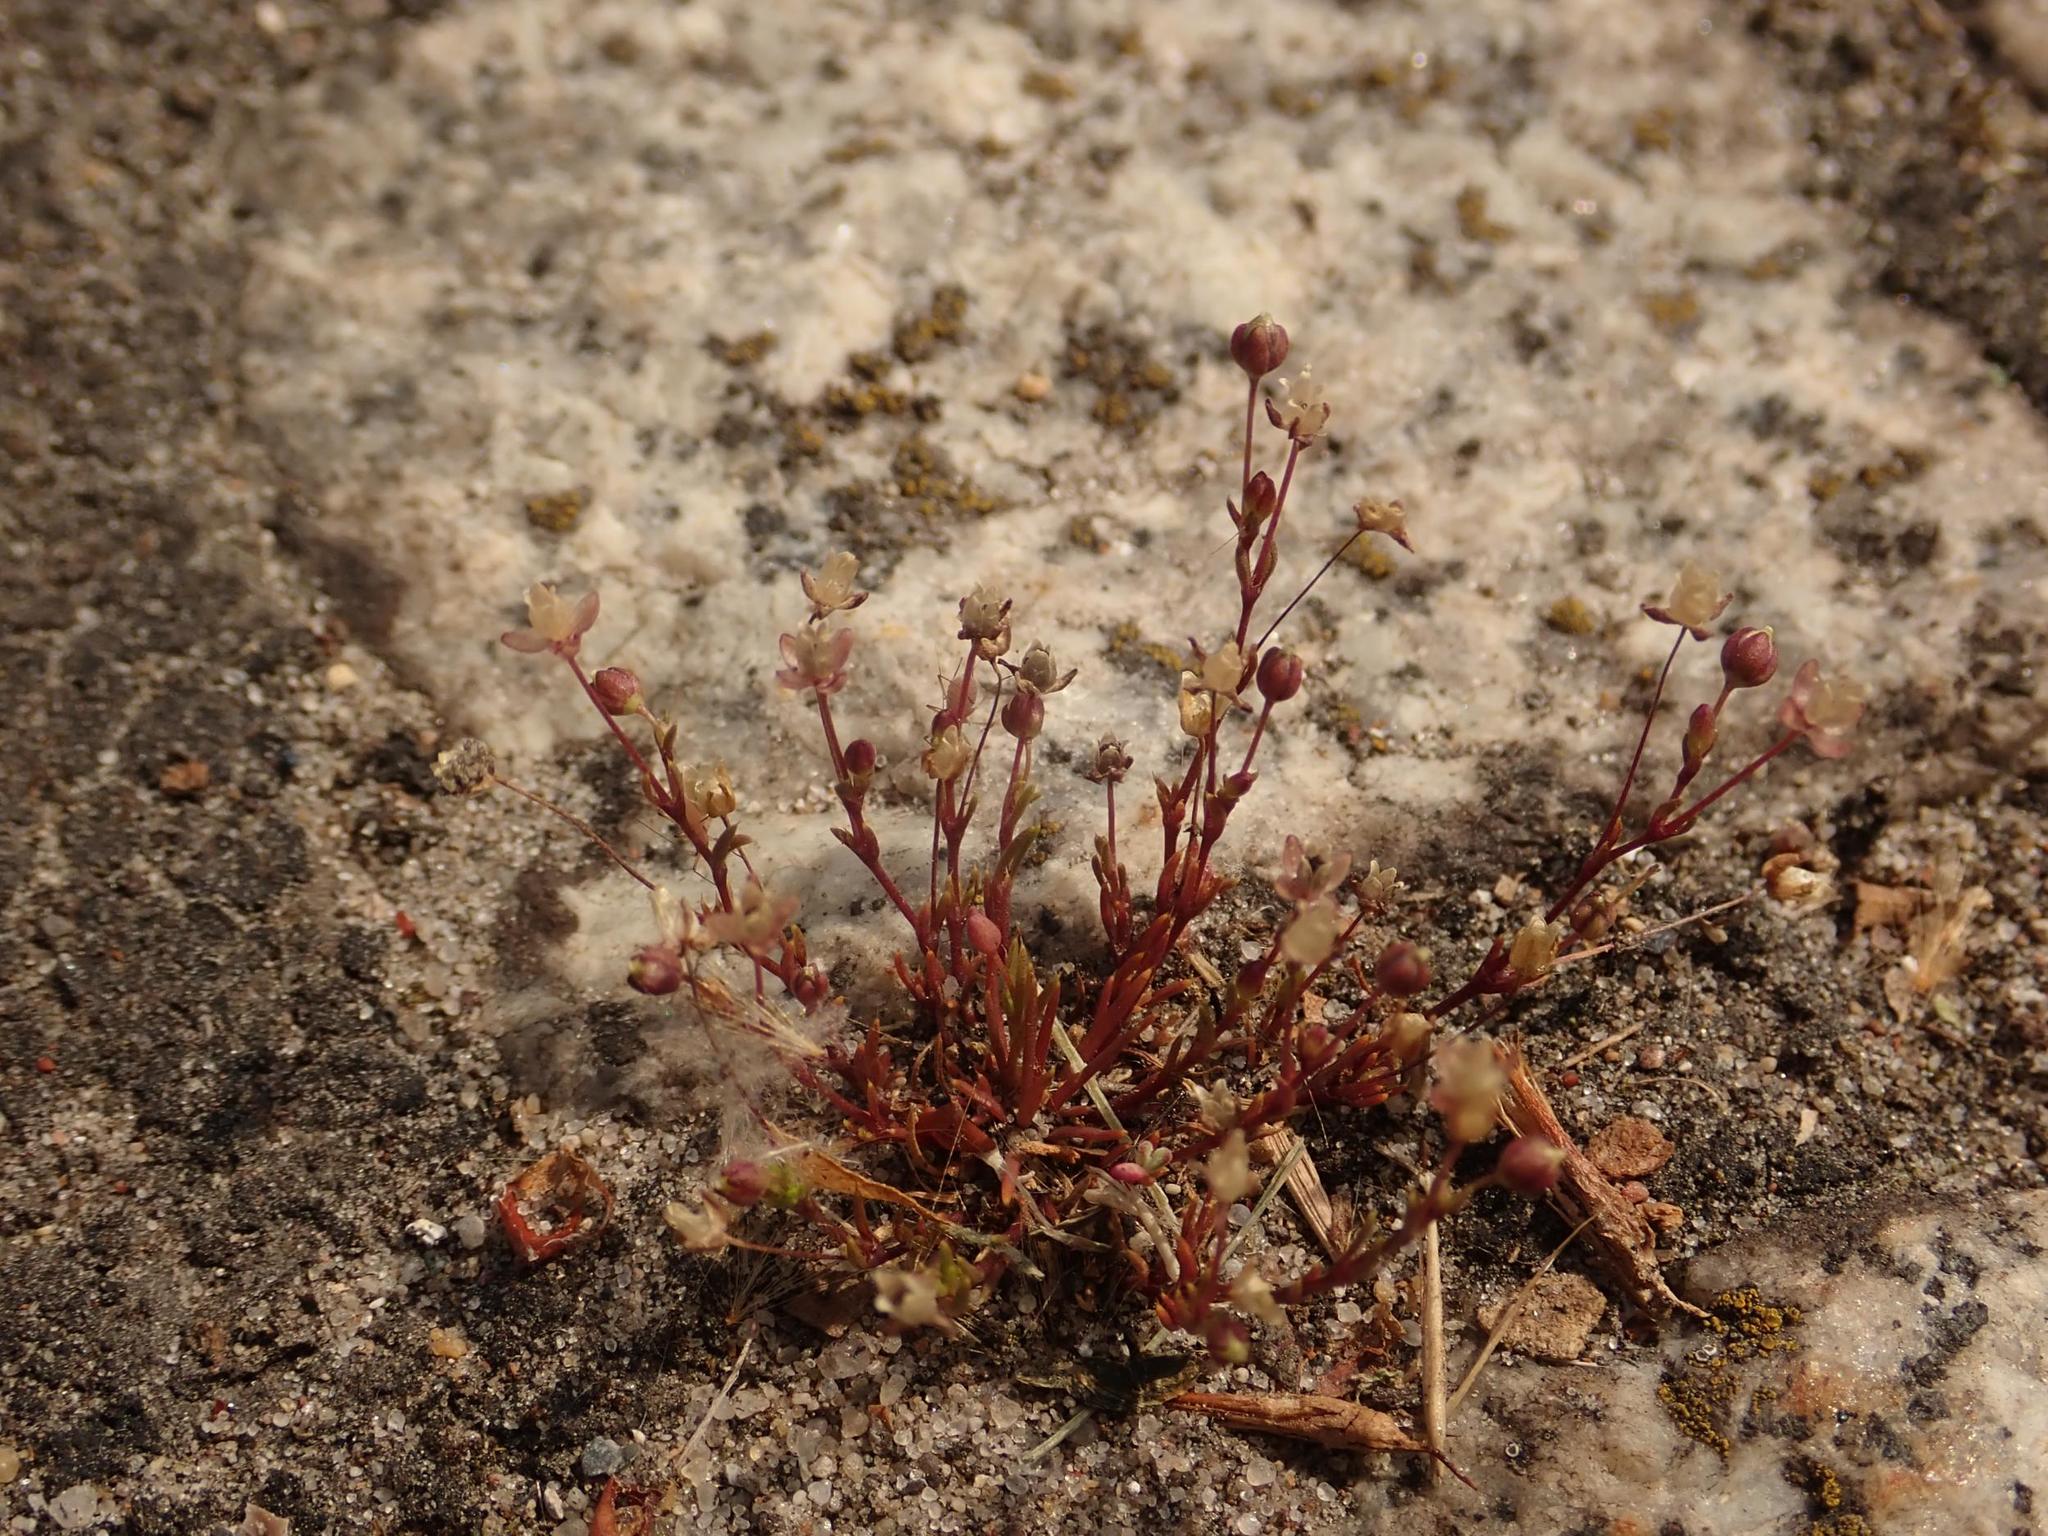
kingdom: Plantae
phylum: Tracheophyta
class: Magnoliopsida
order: Saxifragales
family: Saxifragaceae
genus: Saxifraga
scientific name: Saxifraga tridactylites
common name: Rue-leaved saxifrage
